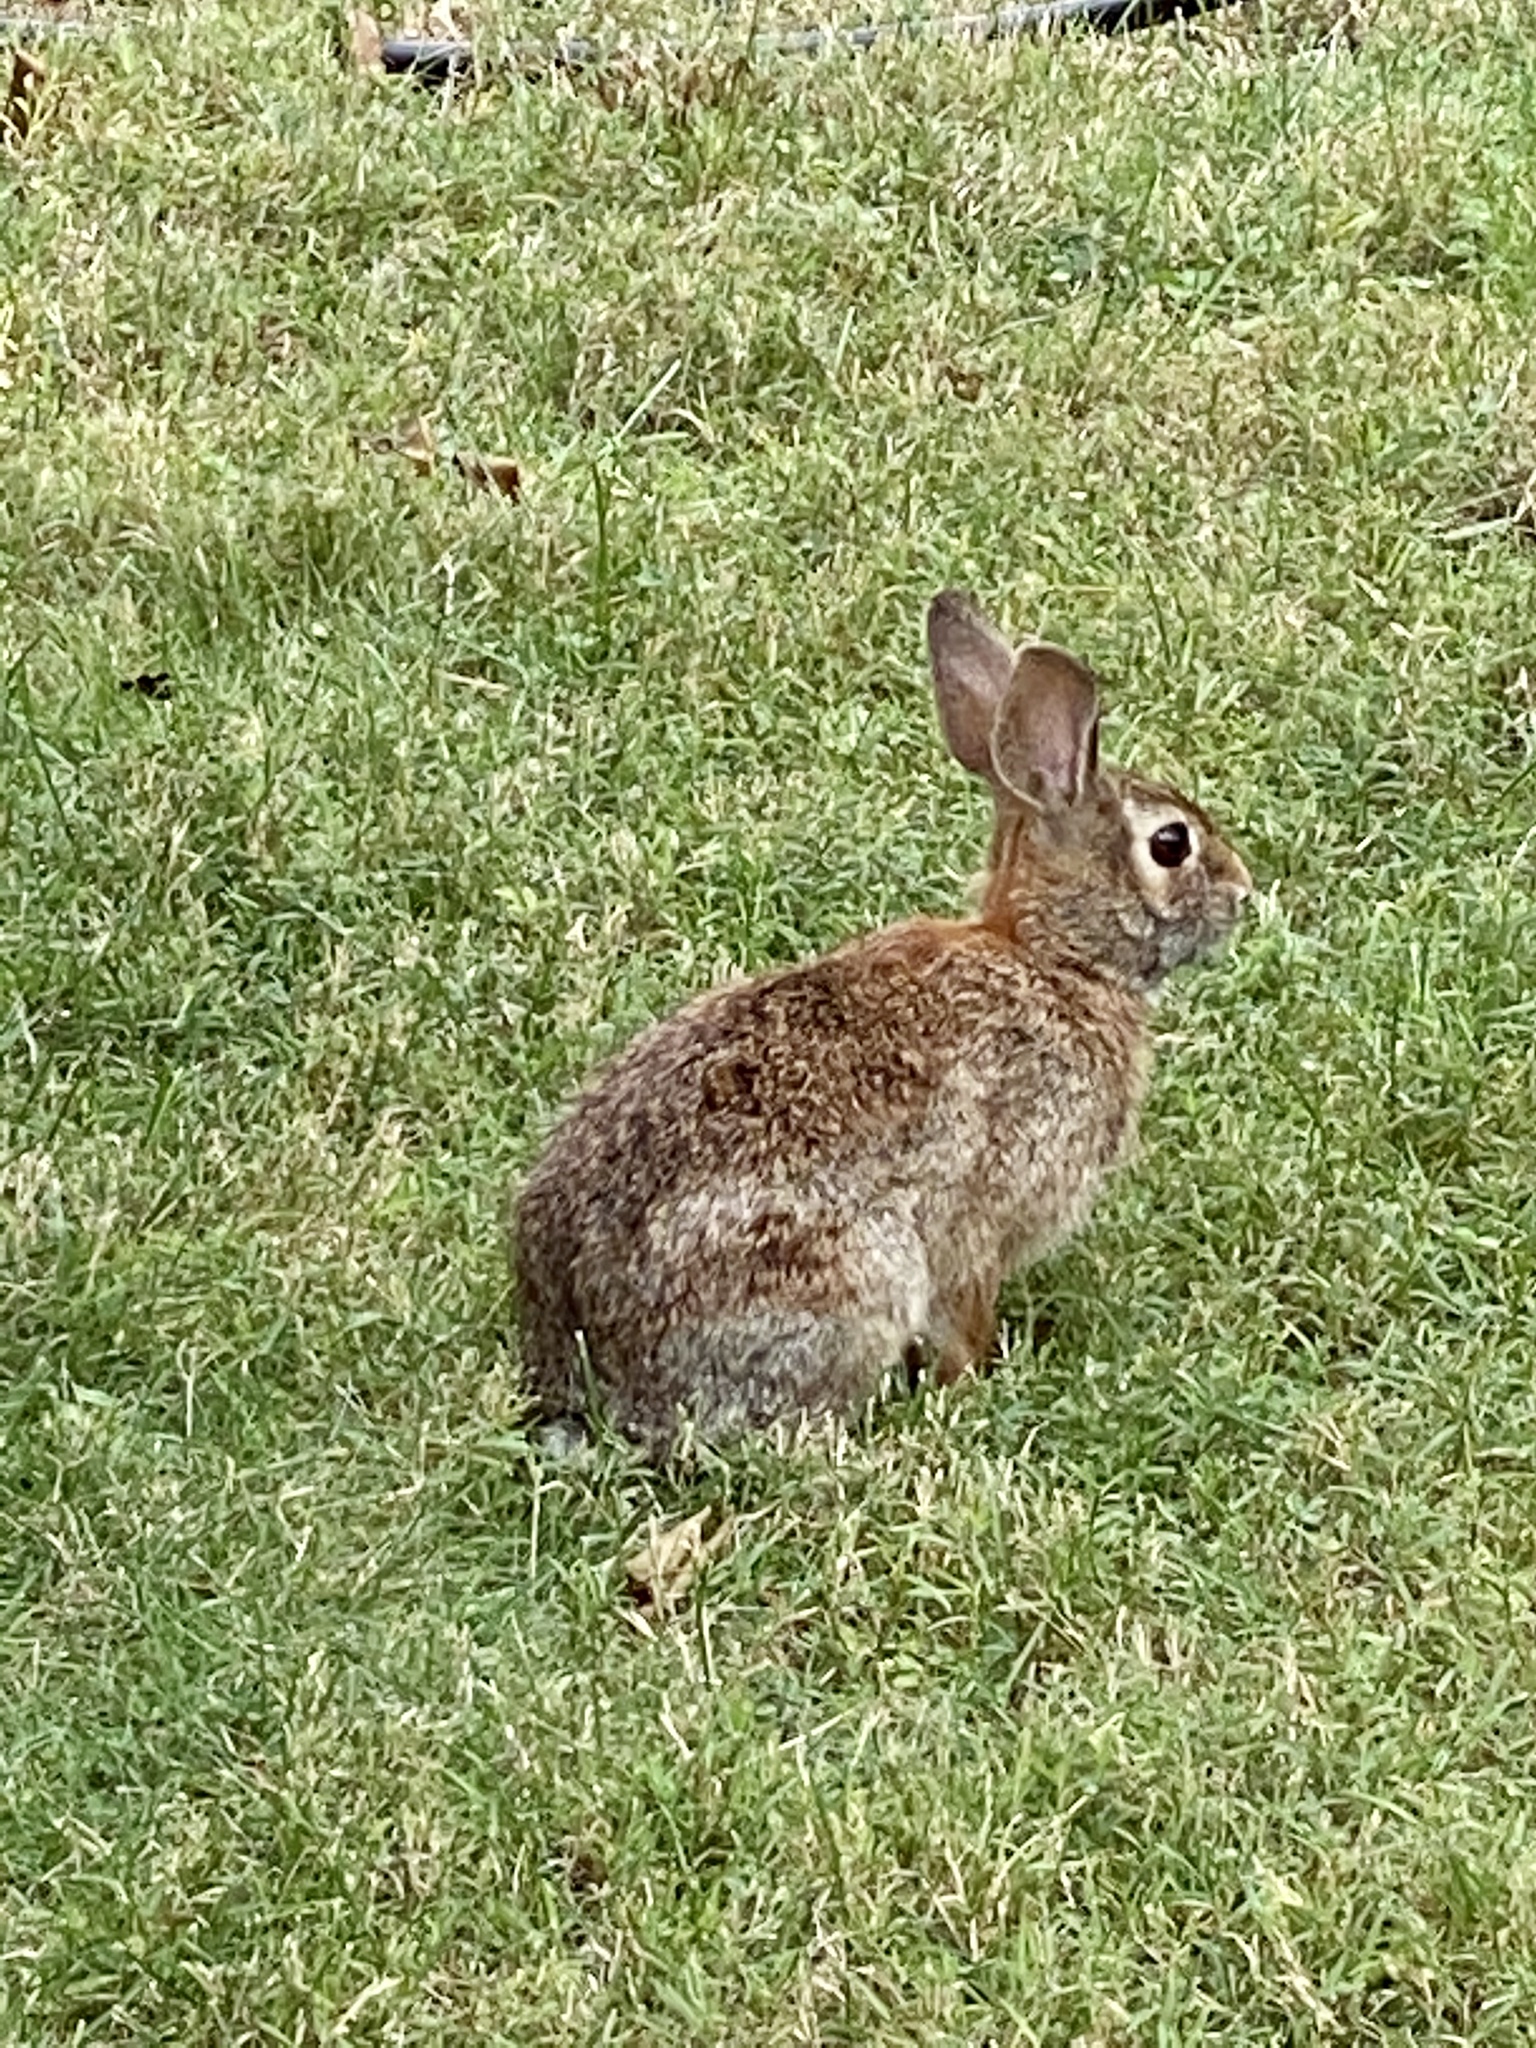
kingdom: Animalia
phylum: Chordata
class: Mammalia
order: Lagomorpha
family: Leporidae
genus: Sylvilagus
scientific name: Sylvilagus floridanus
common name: Eastern cottontail
